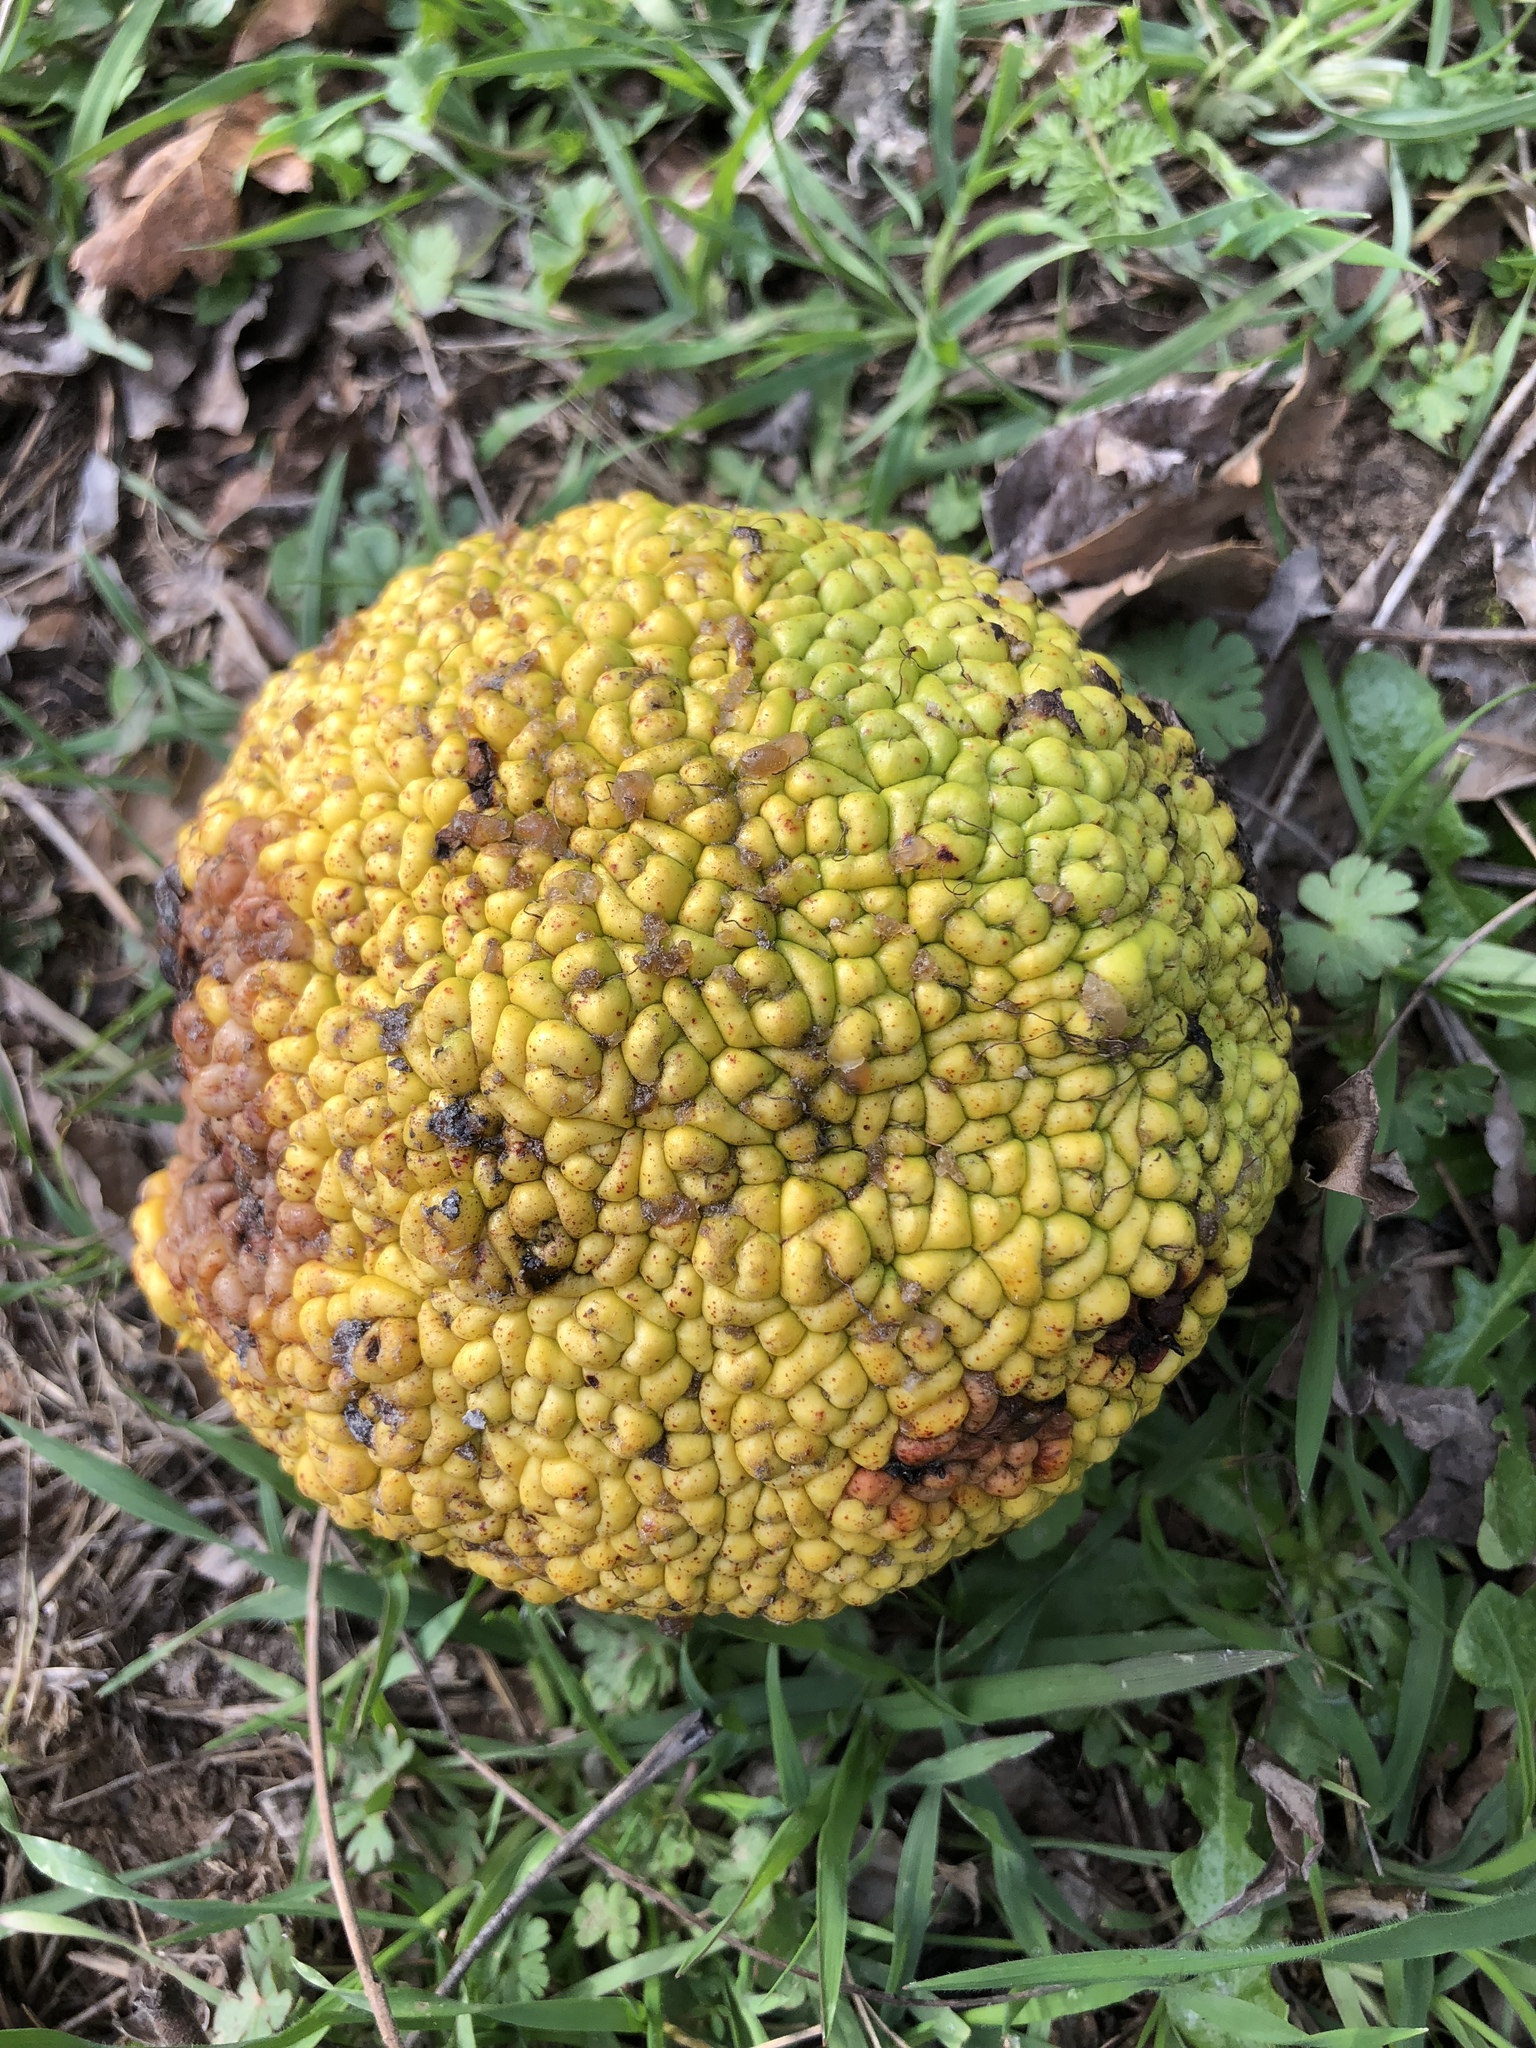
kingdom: Plantae
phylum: Tracheophyta
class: Magnoliopsida
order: Rosales
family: Moraceae
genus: Maclura
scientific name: Maclura pomifera
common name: Osage-orange
